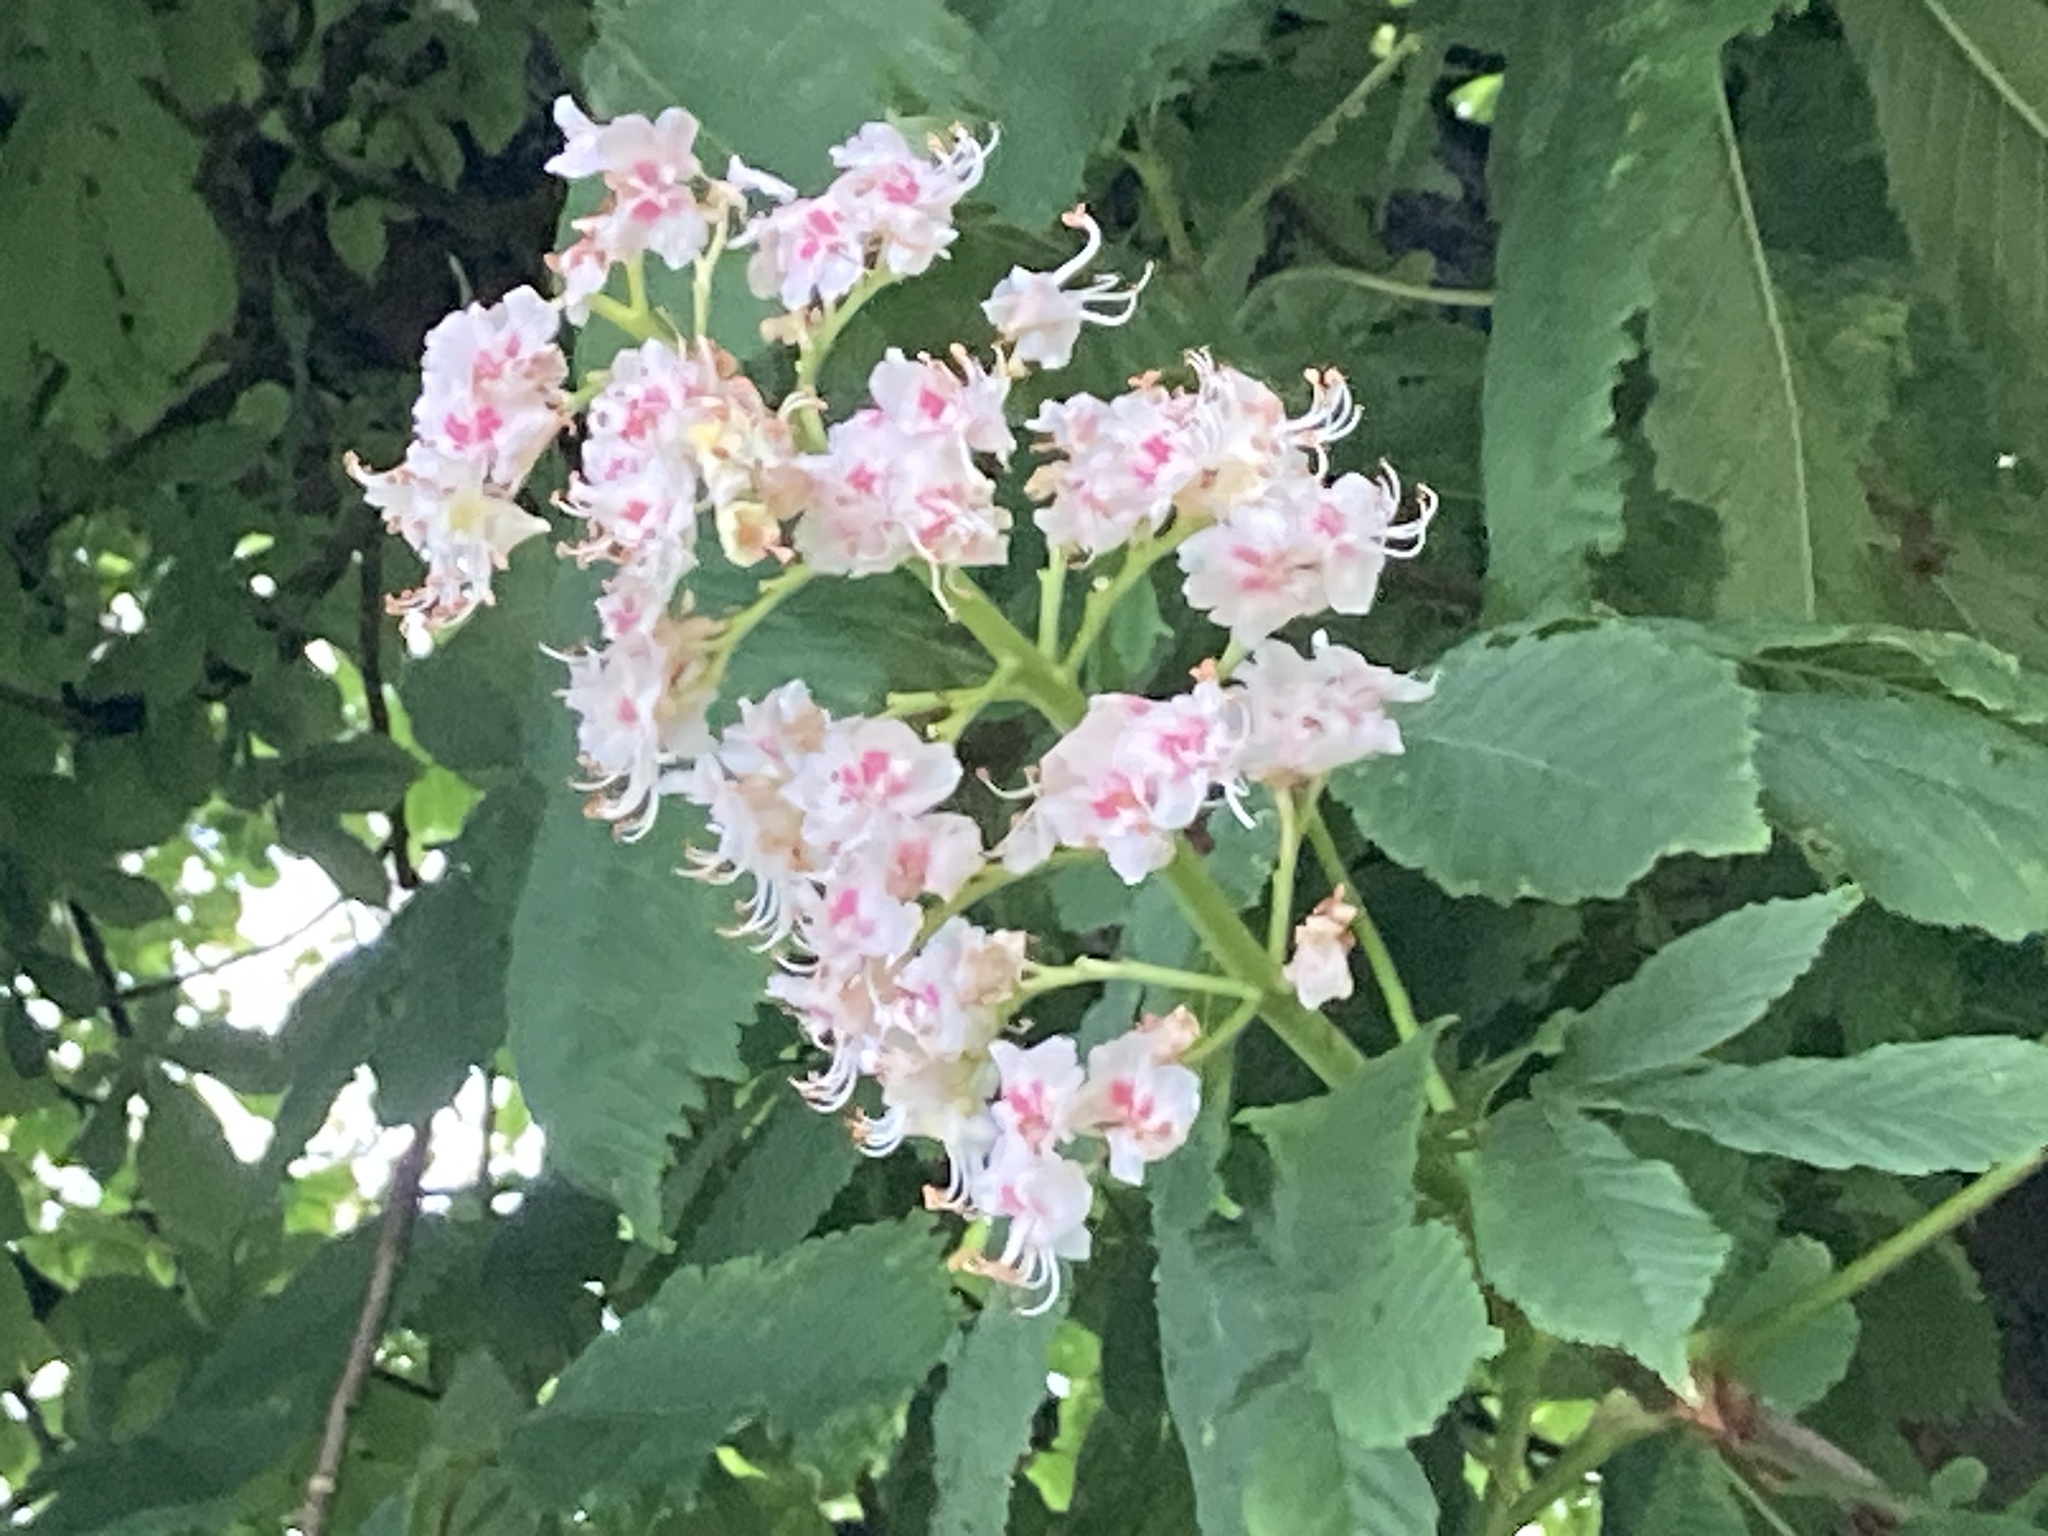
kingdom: Plantae
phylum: Tracheophyta
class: Magnoliopsida
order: Sapindales
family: Sapindaceae
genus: Aesculus
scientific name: Aesculus hippocastanum
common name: Horse-chestnut
